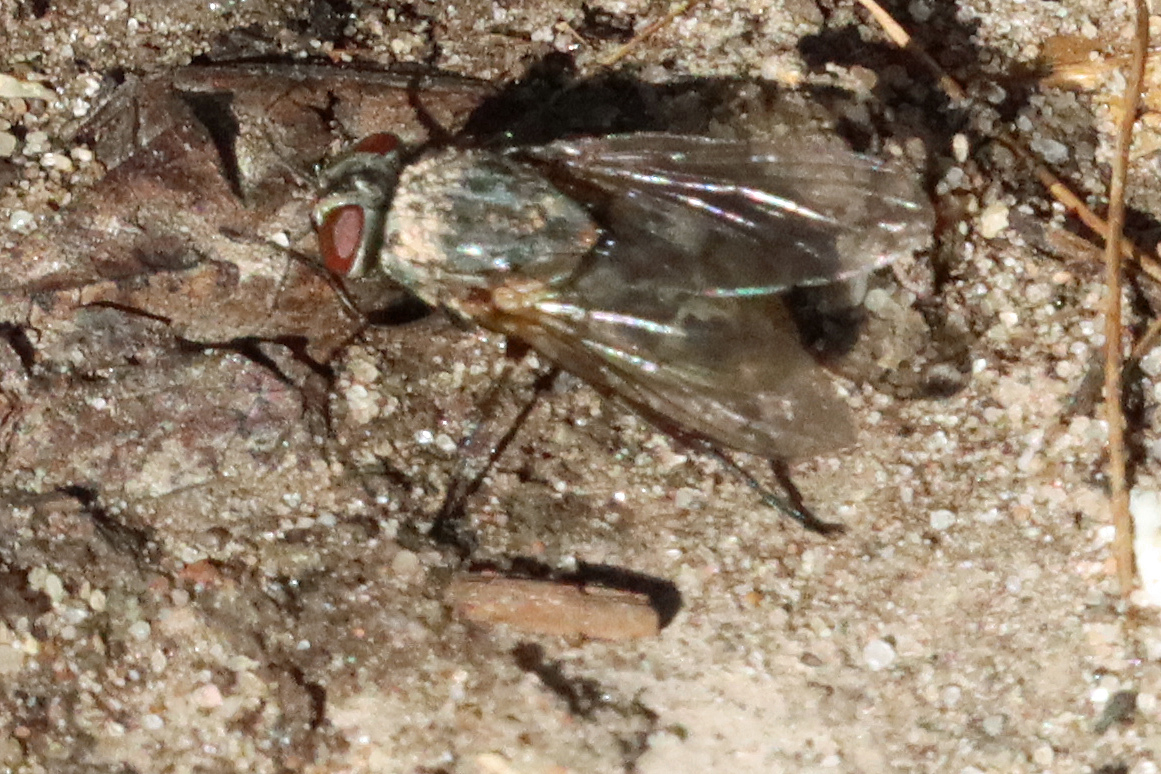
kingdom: Animalia
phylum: Arthropoda
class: Insecta
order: Diptera
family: Polleniidae
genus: Pollenia
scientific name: Pollenia
